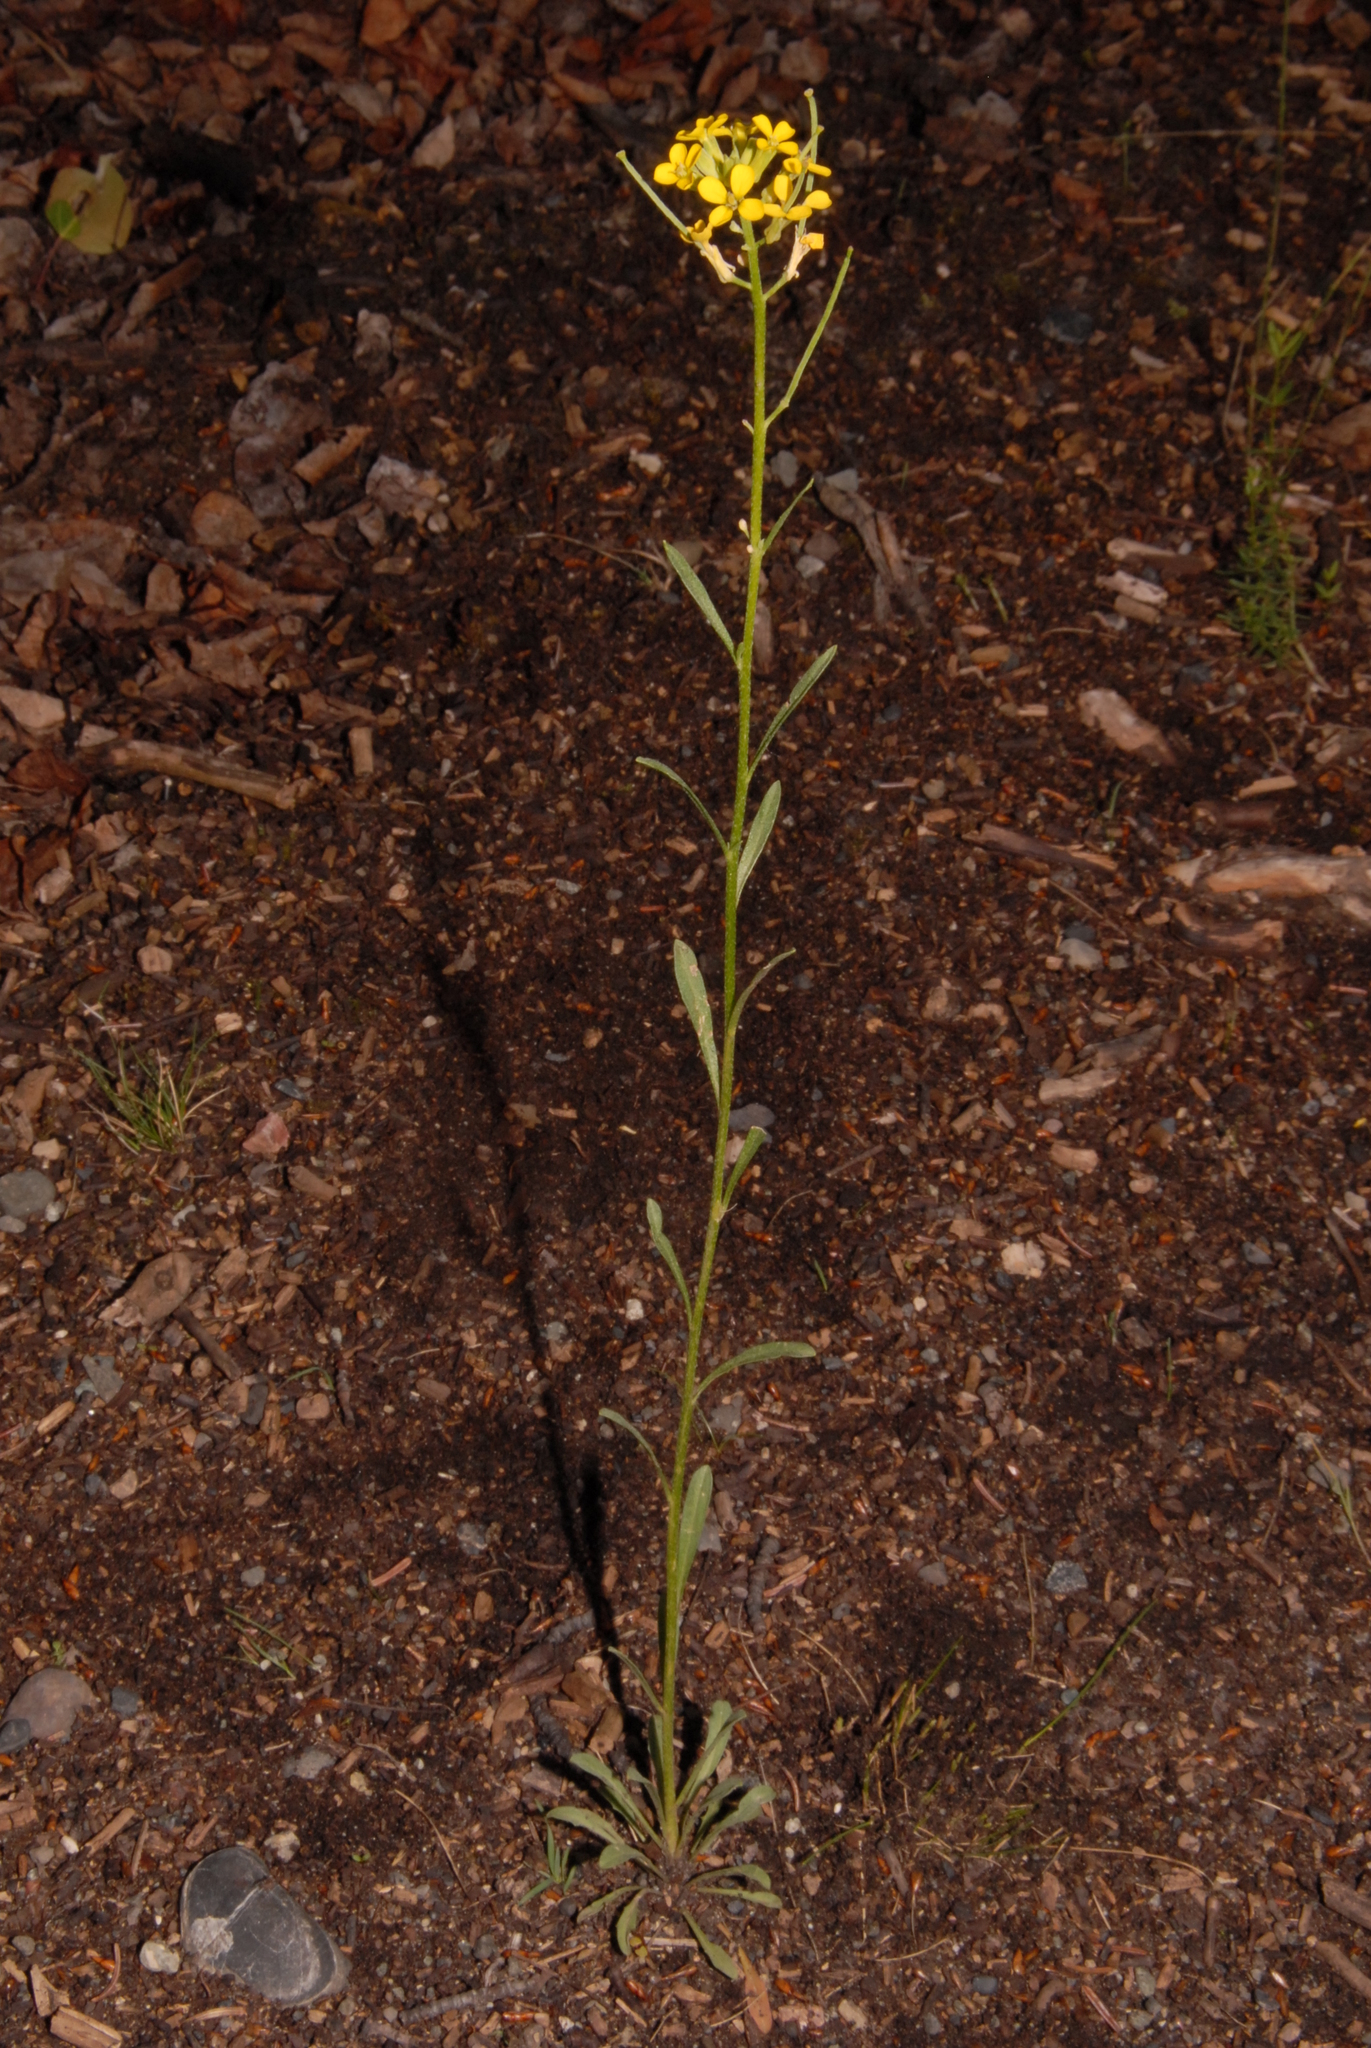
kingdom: Plantae
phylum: Tracheophyta
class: Magnoliopsida
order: Brassicales
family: Brassicaceae
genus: Erysimum
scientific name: Erysimum inconspicuum
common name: Shy wallflower
